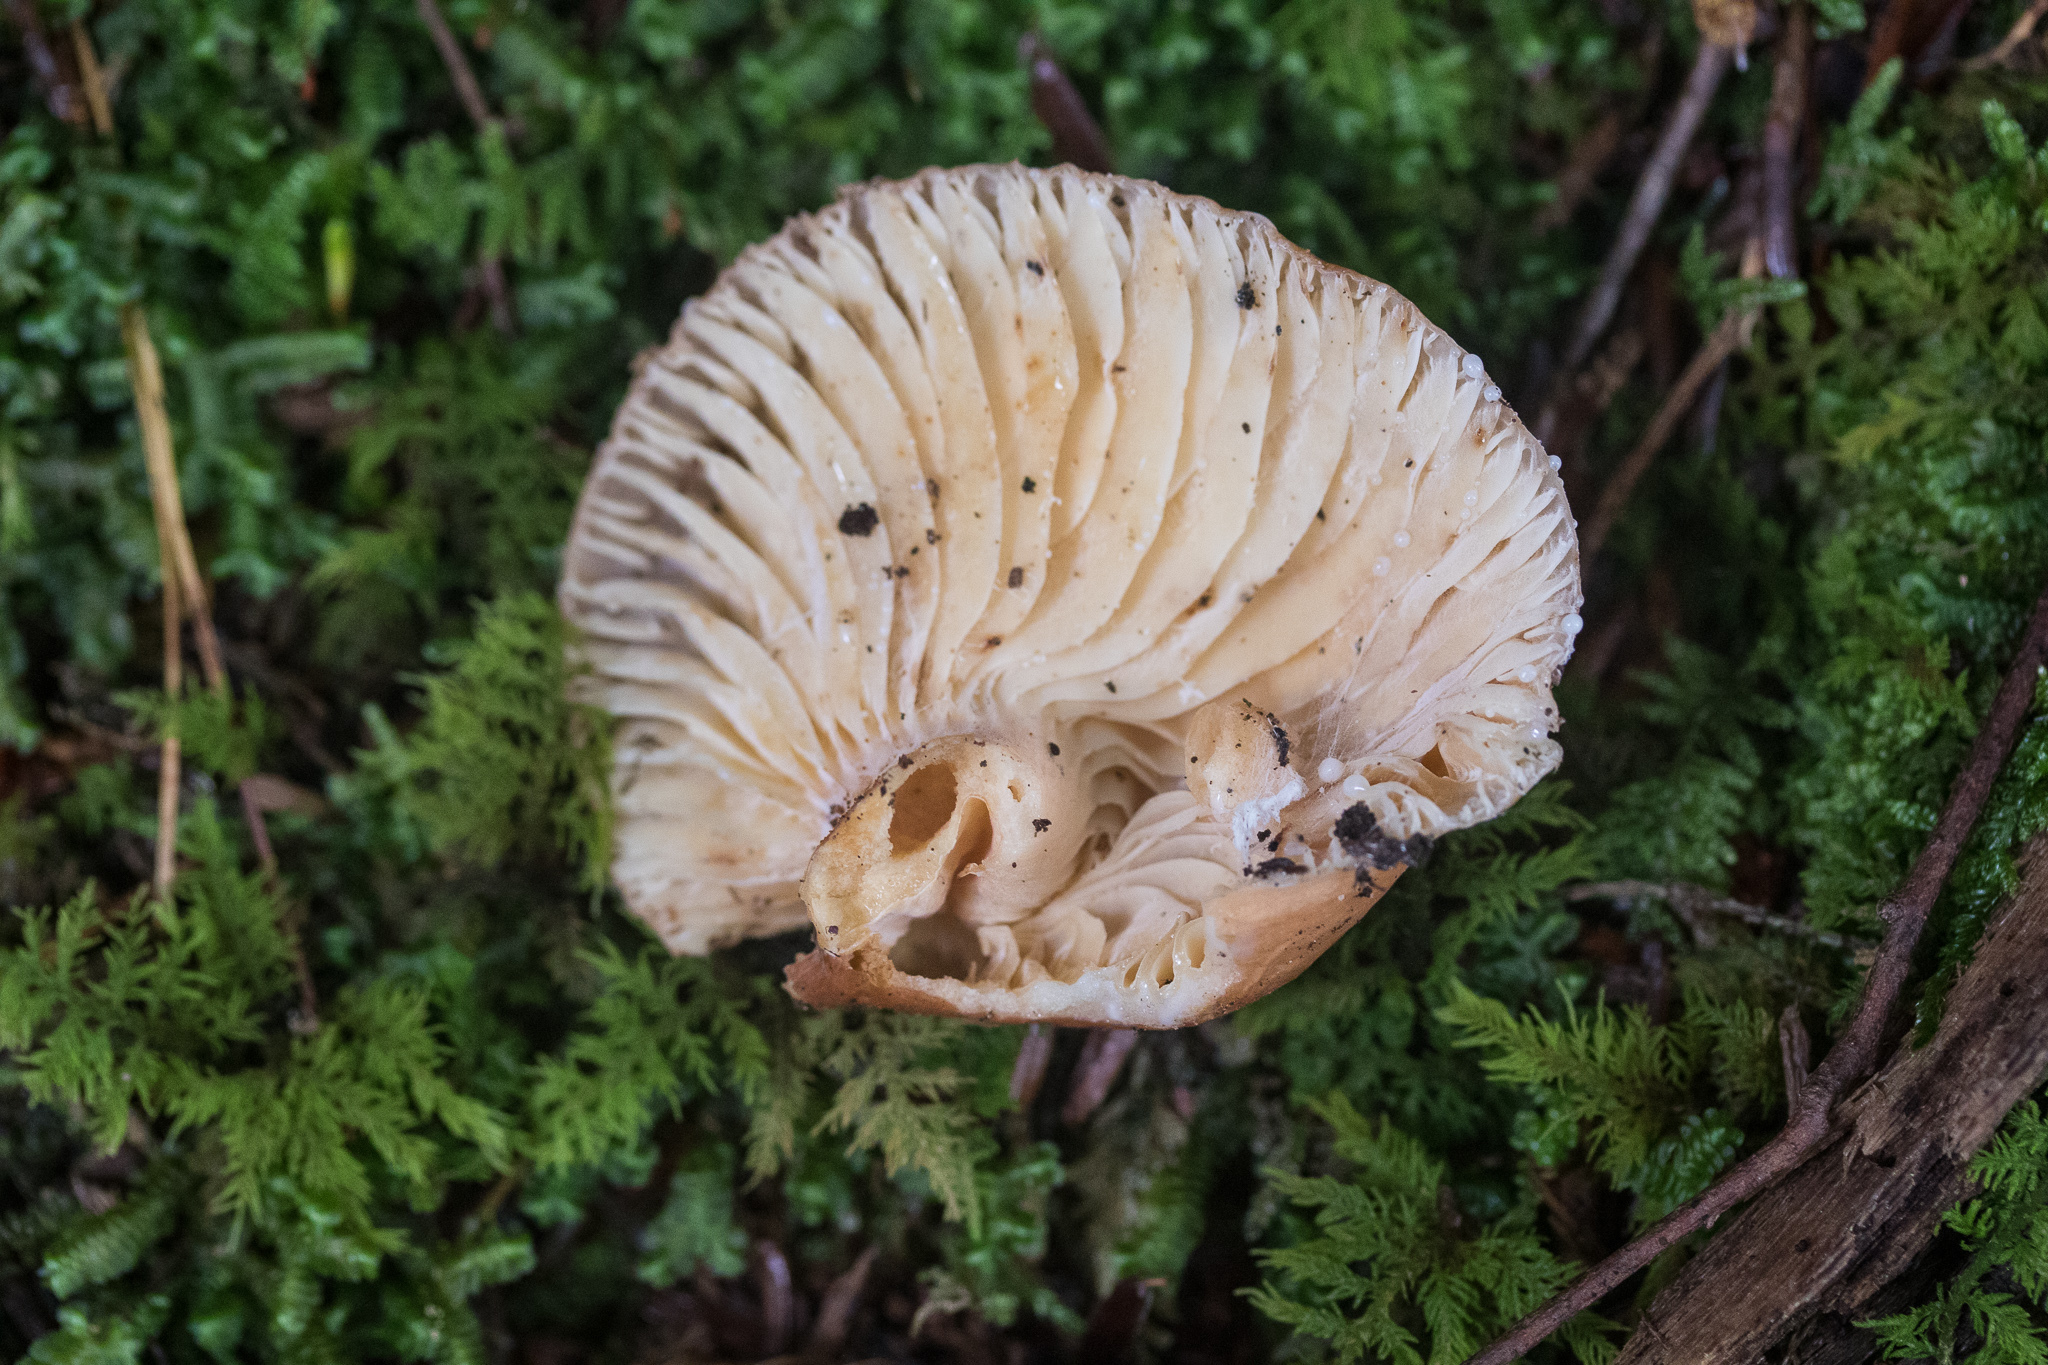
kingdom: Fungi
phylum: Basidiomycota
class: Agaricomycetes
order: Russulales
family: Russulaceae
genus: Lactarius
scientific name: Lactarius hygrophoroides
